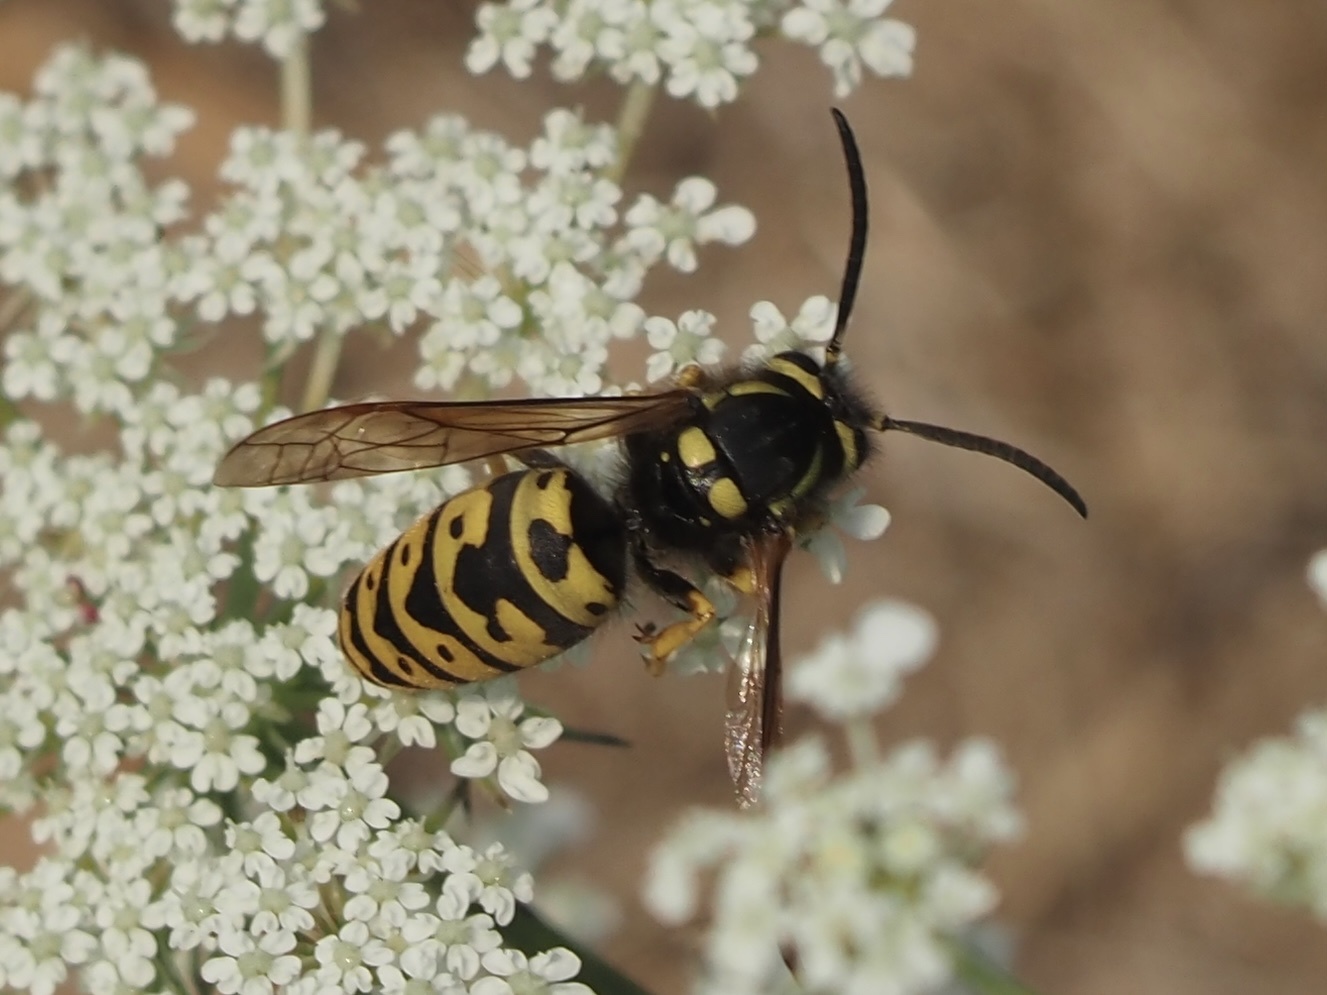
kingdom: Animalia
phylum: Arthropoda
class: Insecta
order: Hymenoptera
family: Vespidae
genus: Vespula
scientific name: Vespula atropilosa
